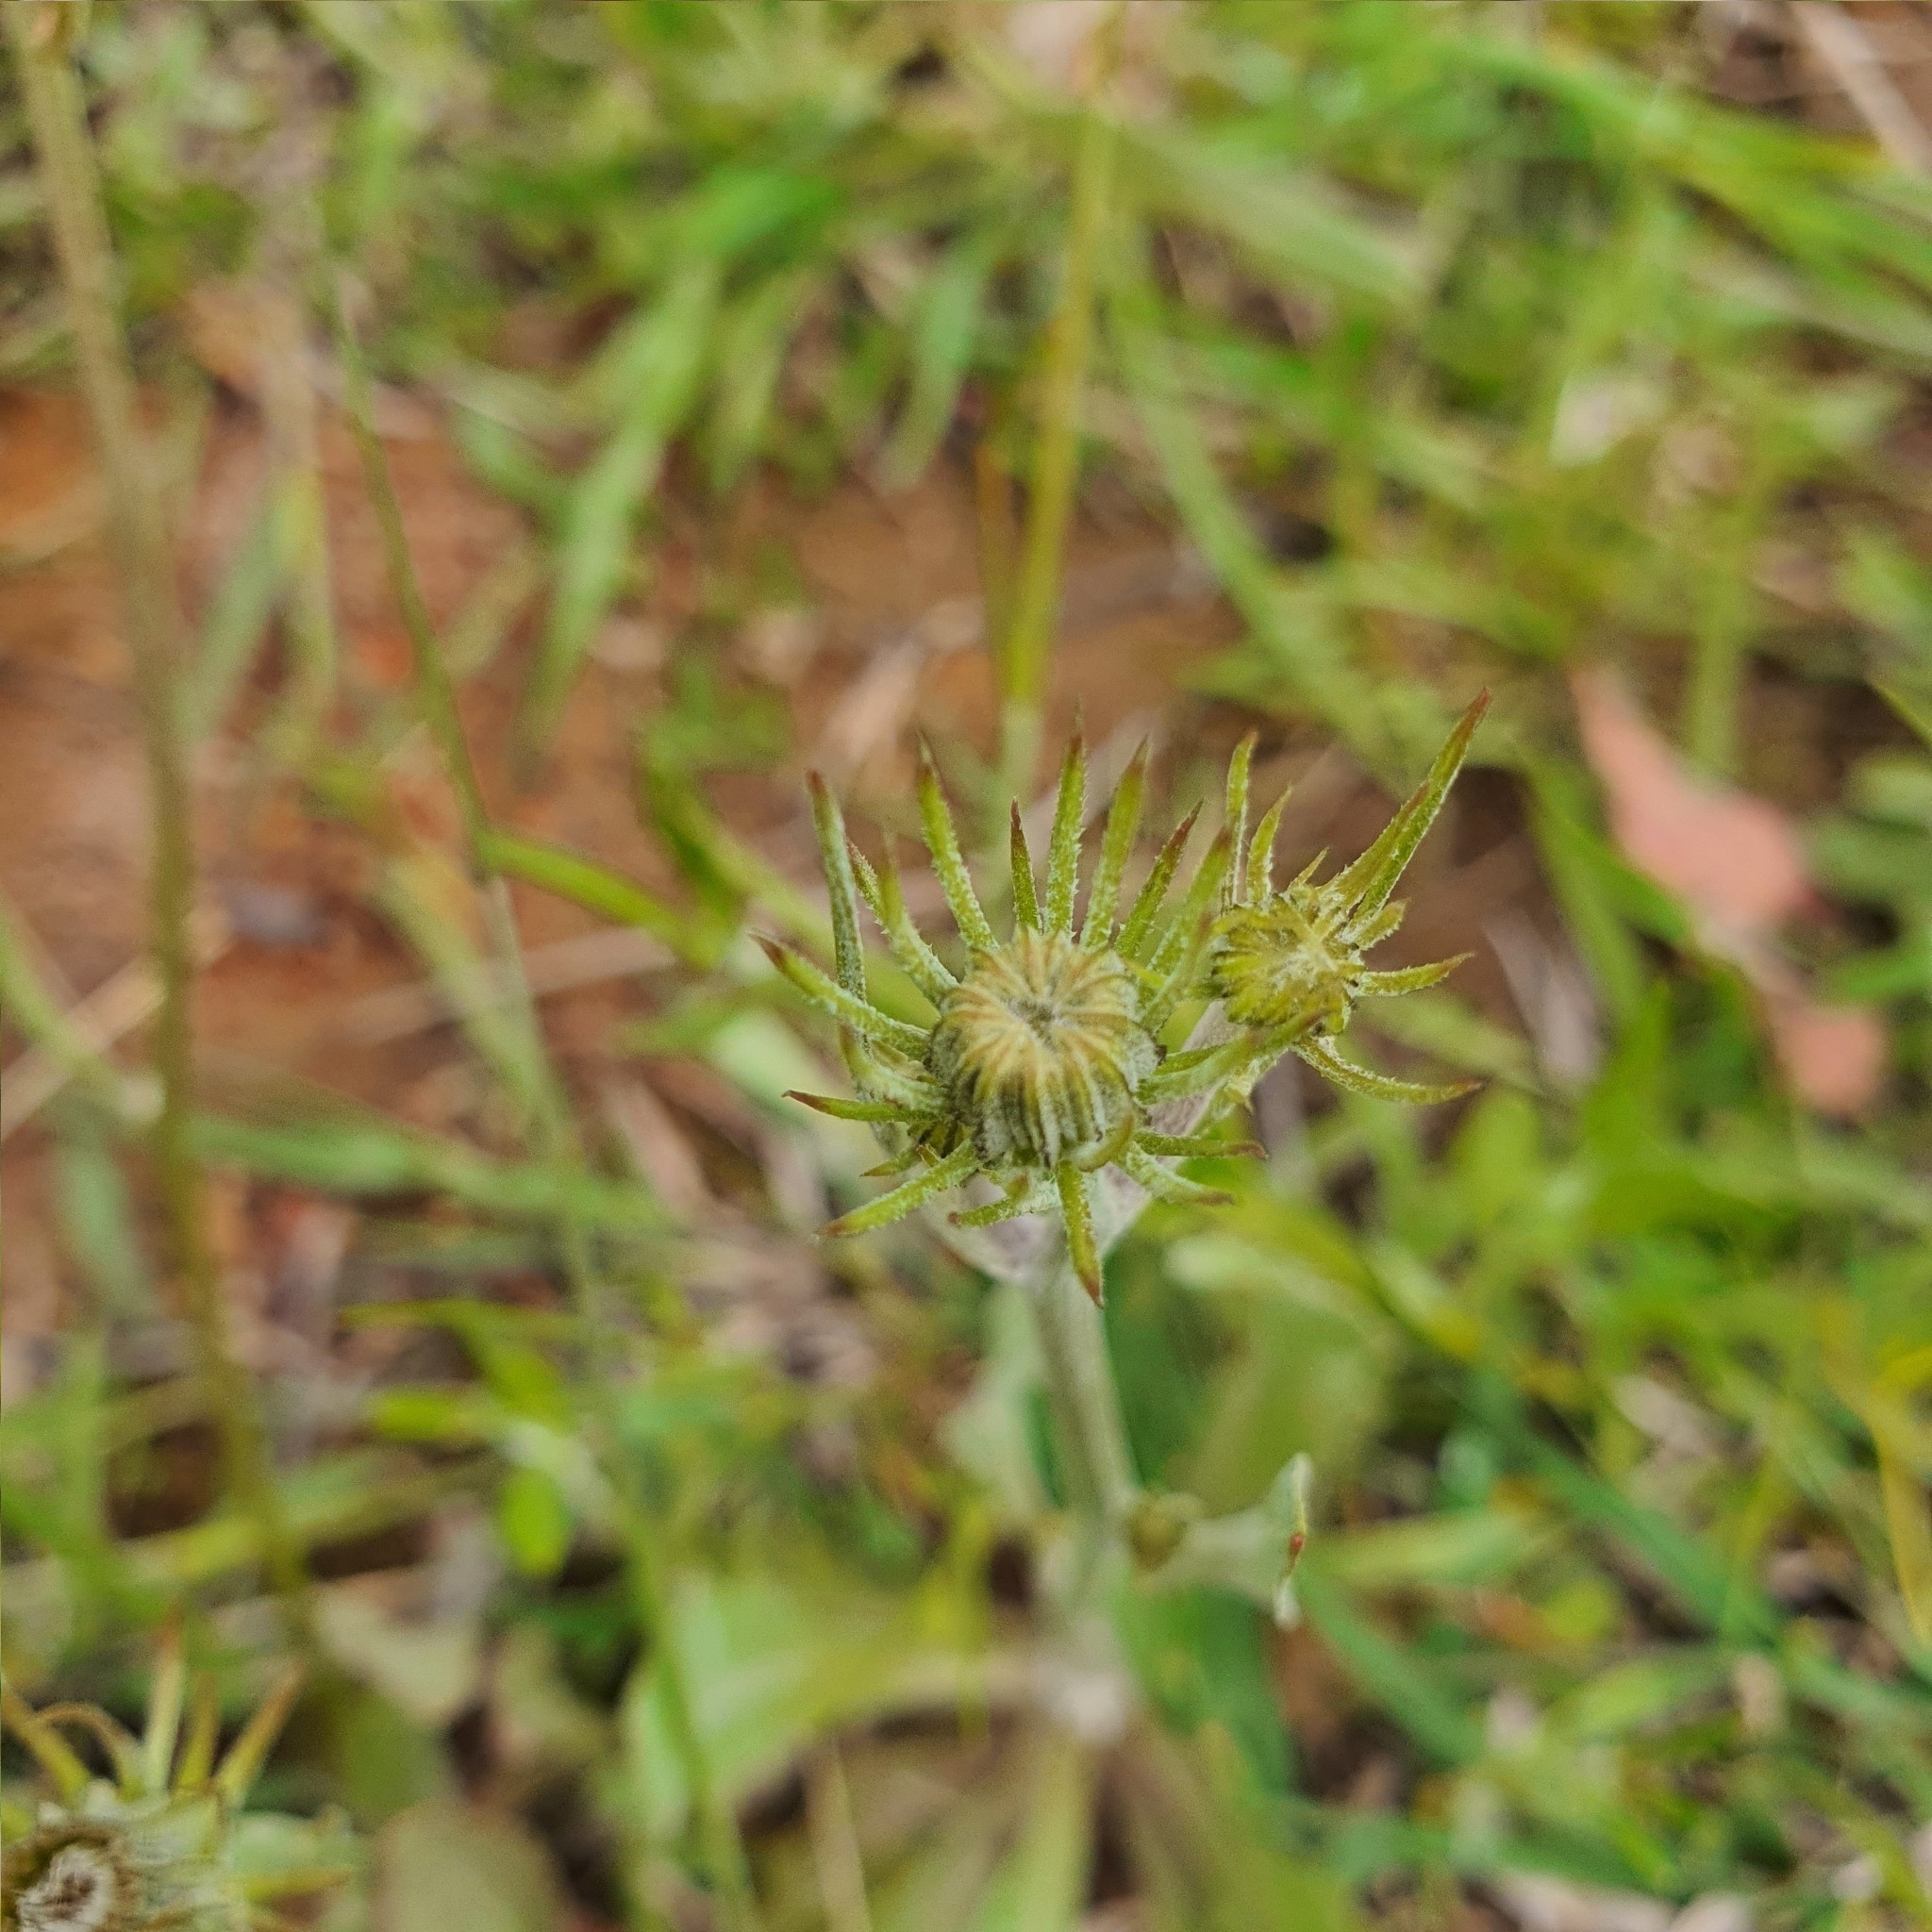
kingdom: Plantae
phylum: Tracheophyta
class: Magnoliopsida
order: Asterales
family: Asteraceae
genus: Tolpis
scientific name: Tolpis barbata
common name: Yellow hawkweed
